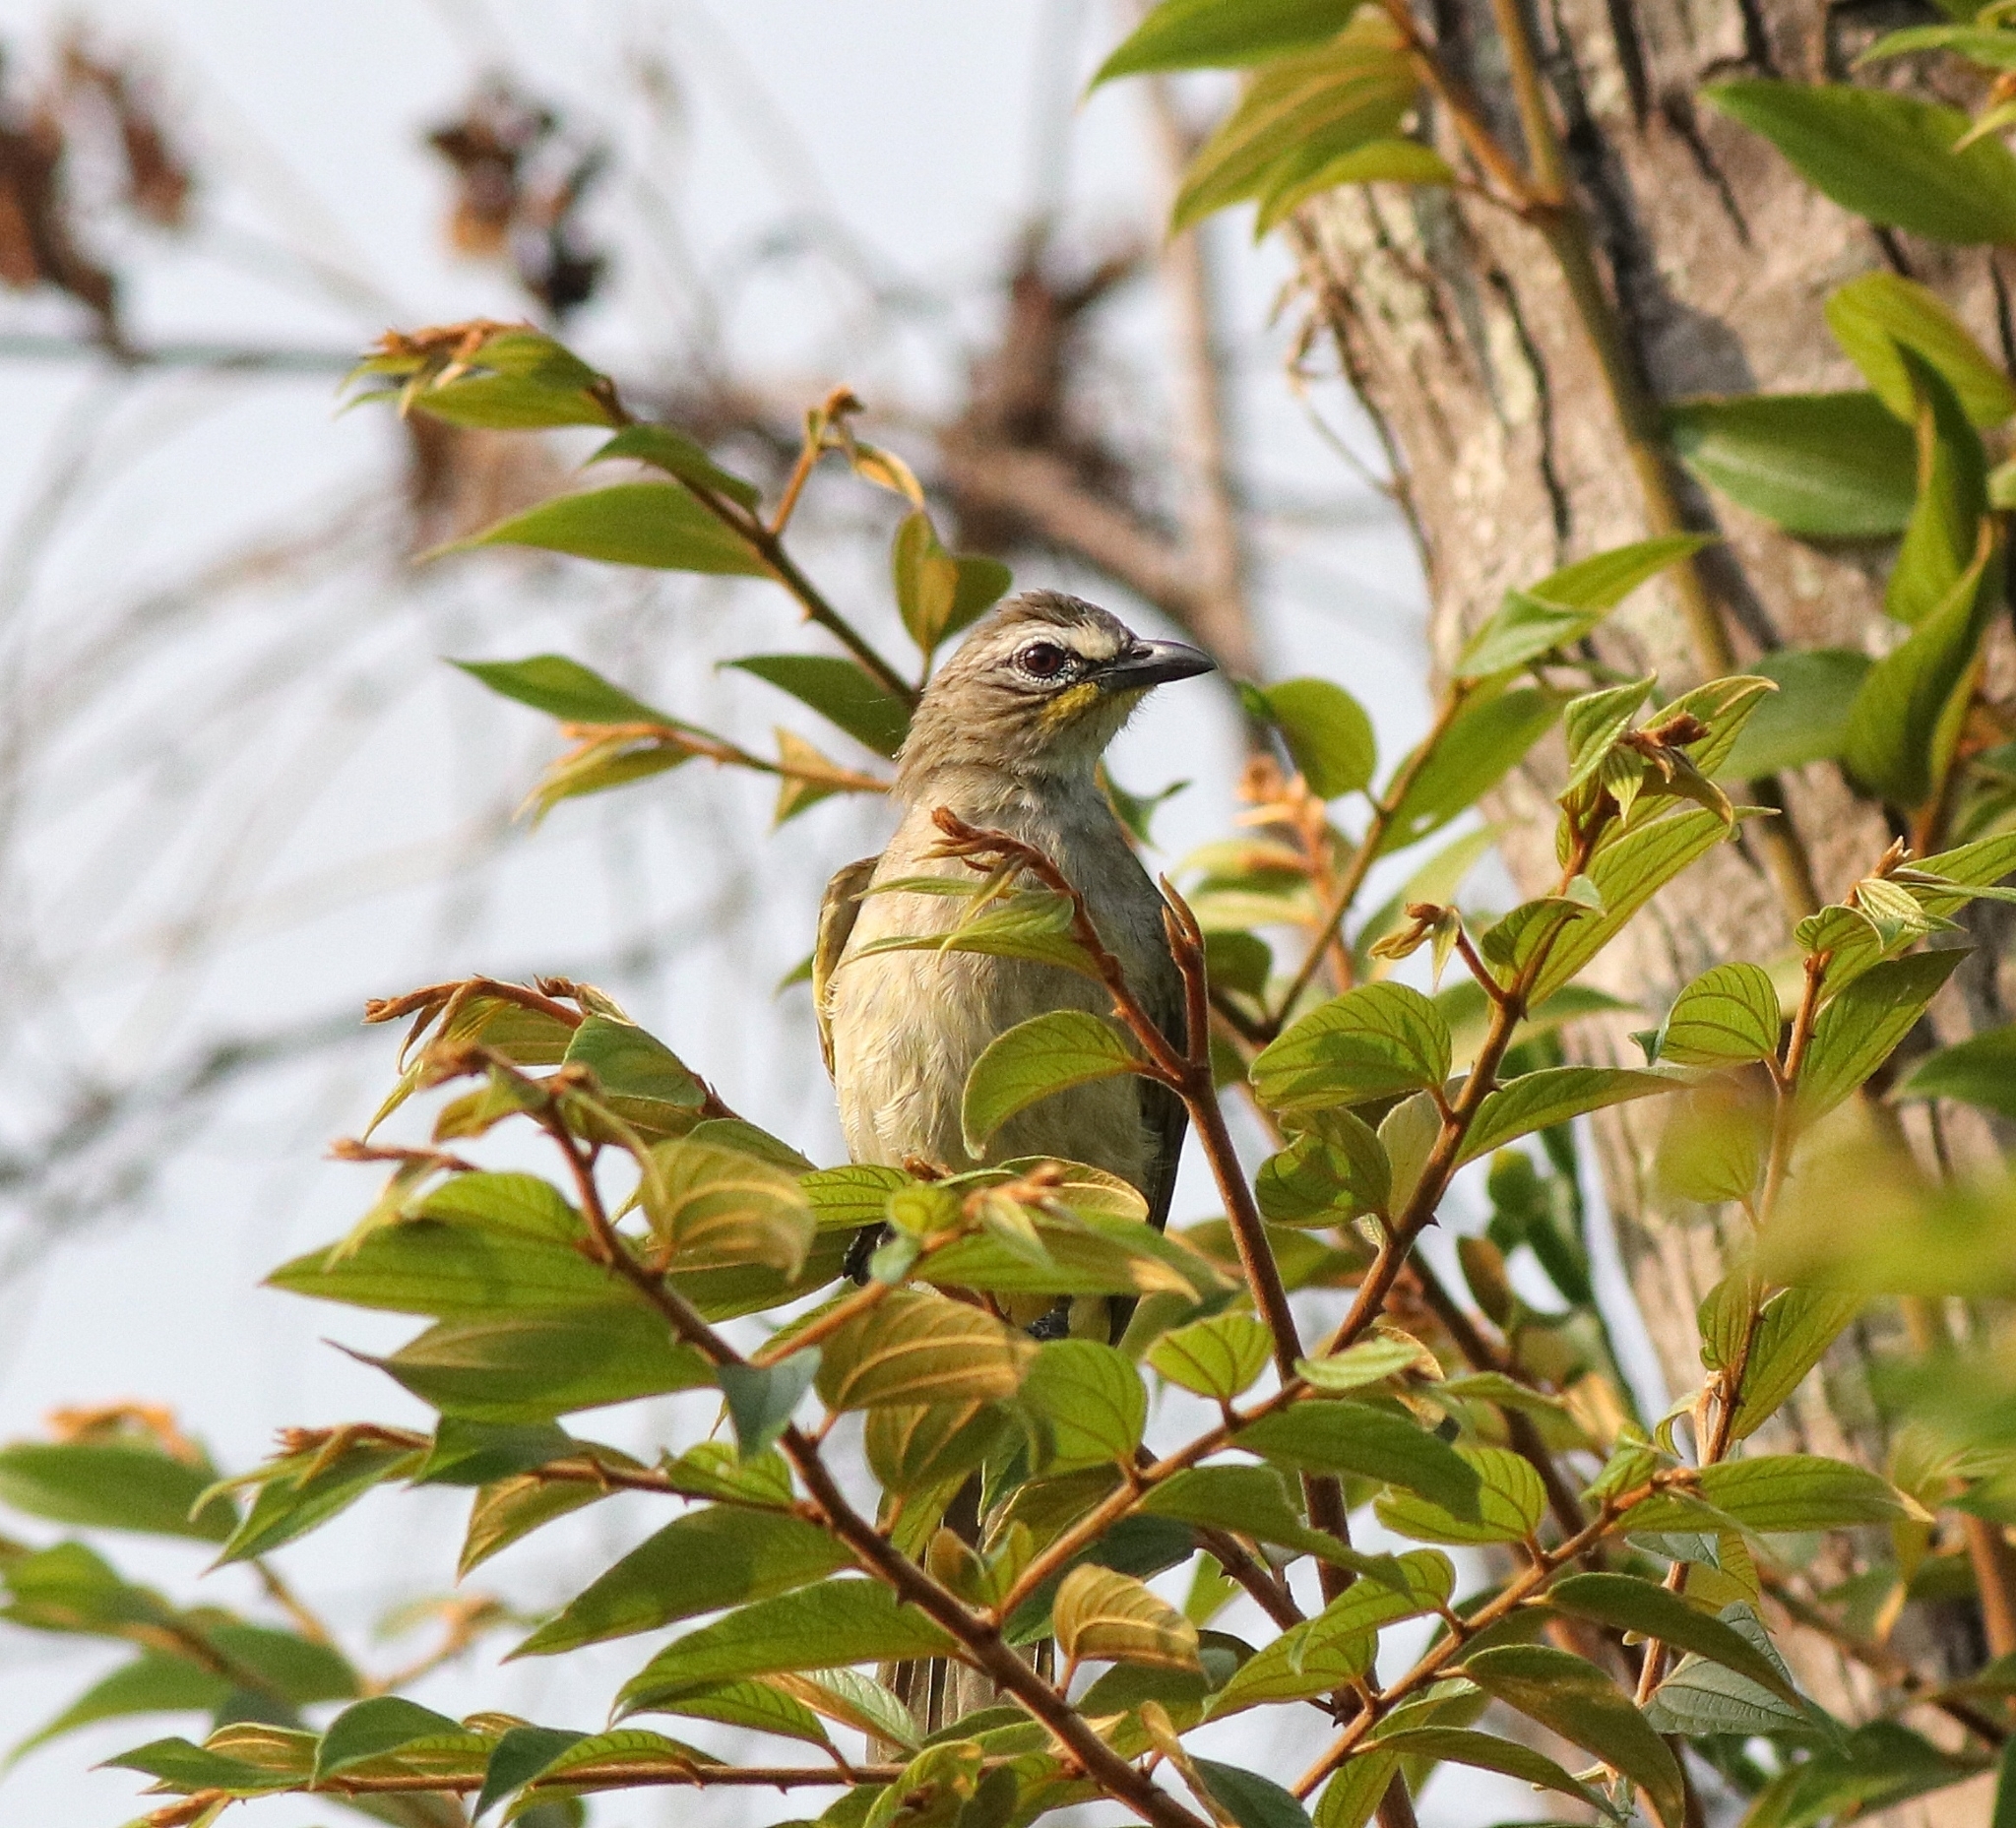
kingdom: Animalia
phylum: Chordata
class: Aves
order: Passeriformes
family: Pycnonotidae
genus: Pycnonotus
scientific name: Pycnonotus luteolus
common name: White-browed bulbul
